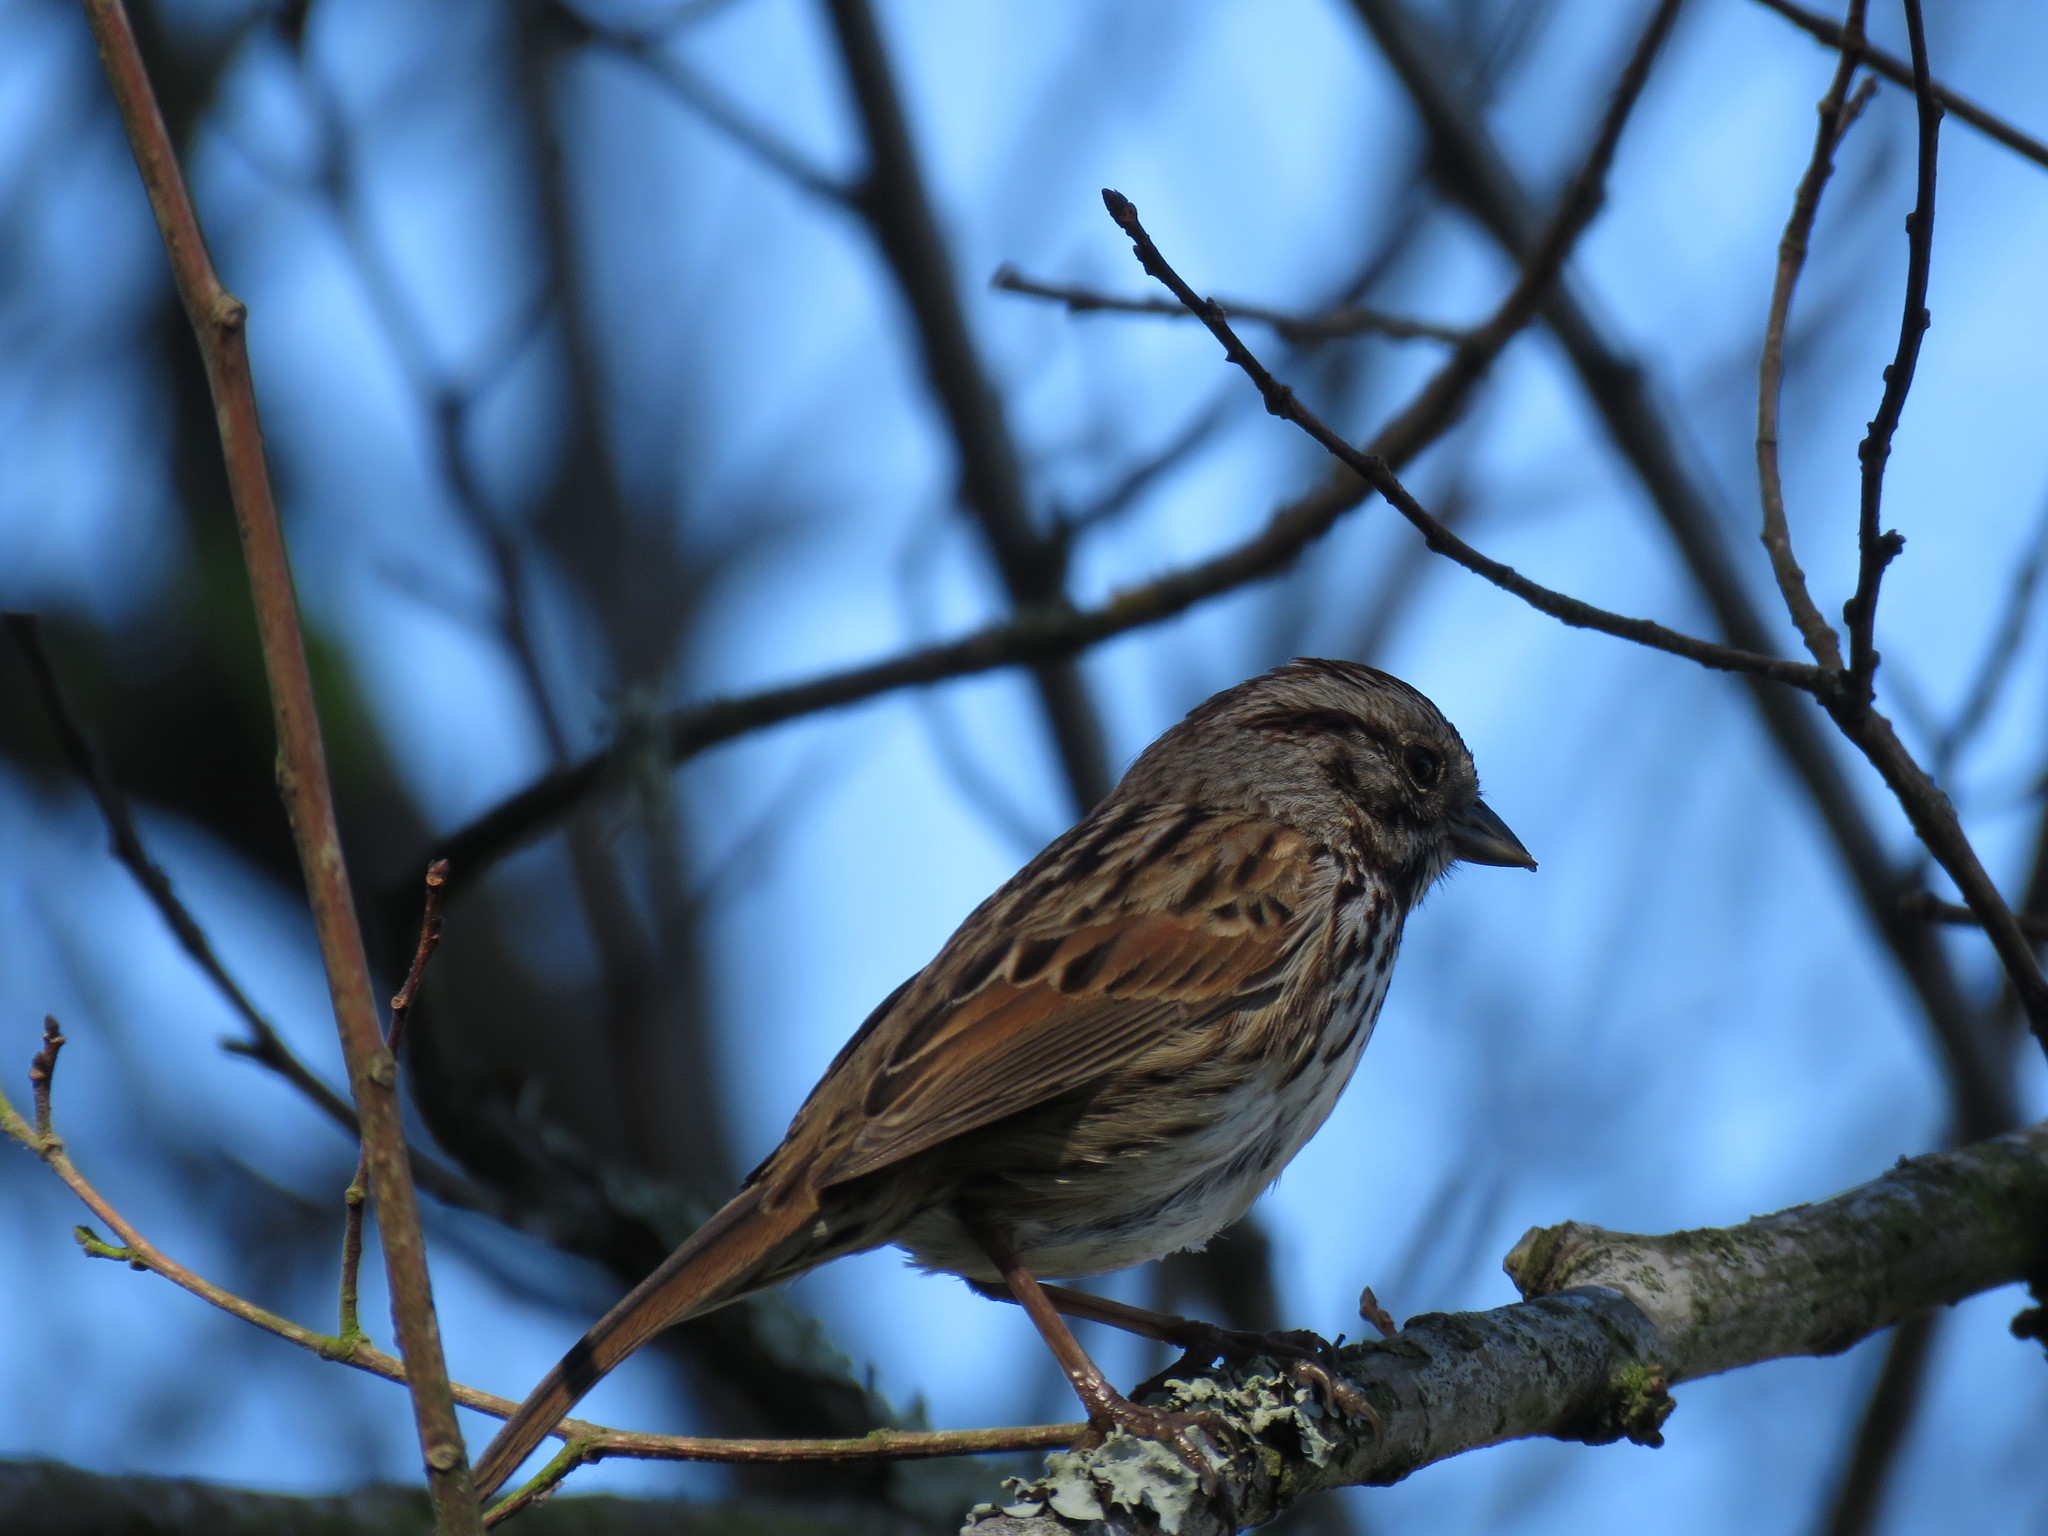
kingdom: Animalia
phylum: Chordata
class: Aves
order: Passeriformes
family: Passerellidae
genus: Melospiza
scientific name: Melospiza melodia
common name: Song sparrow
